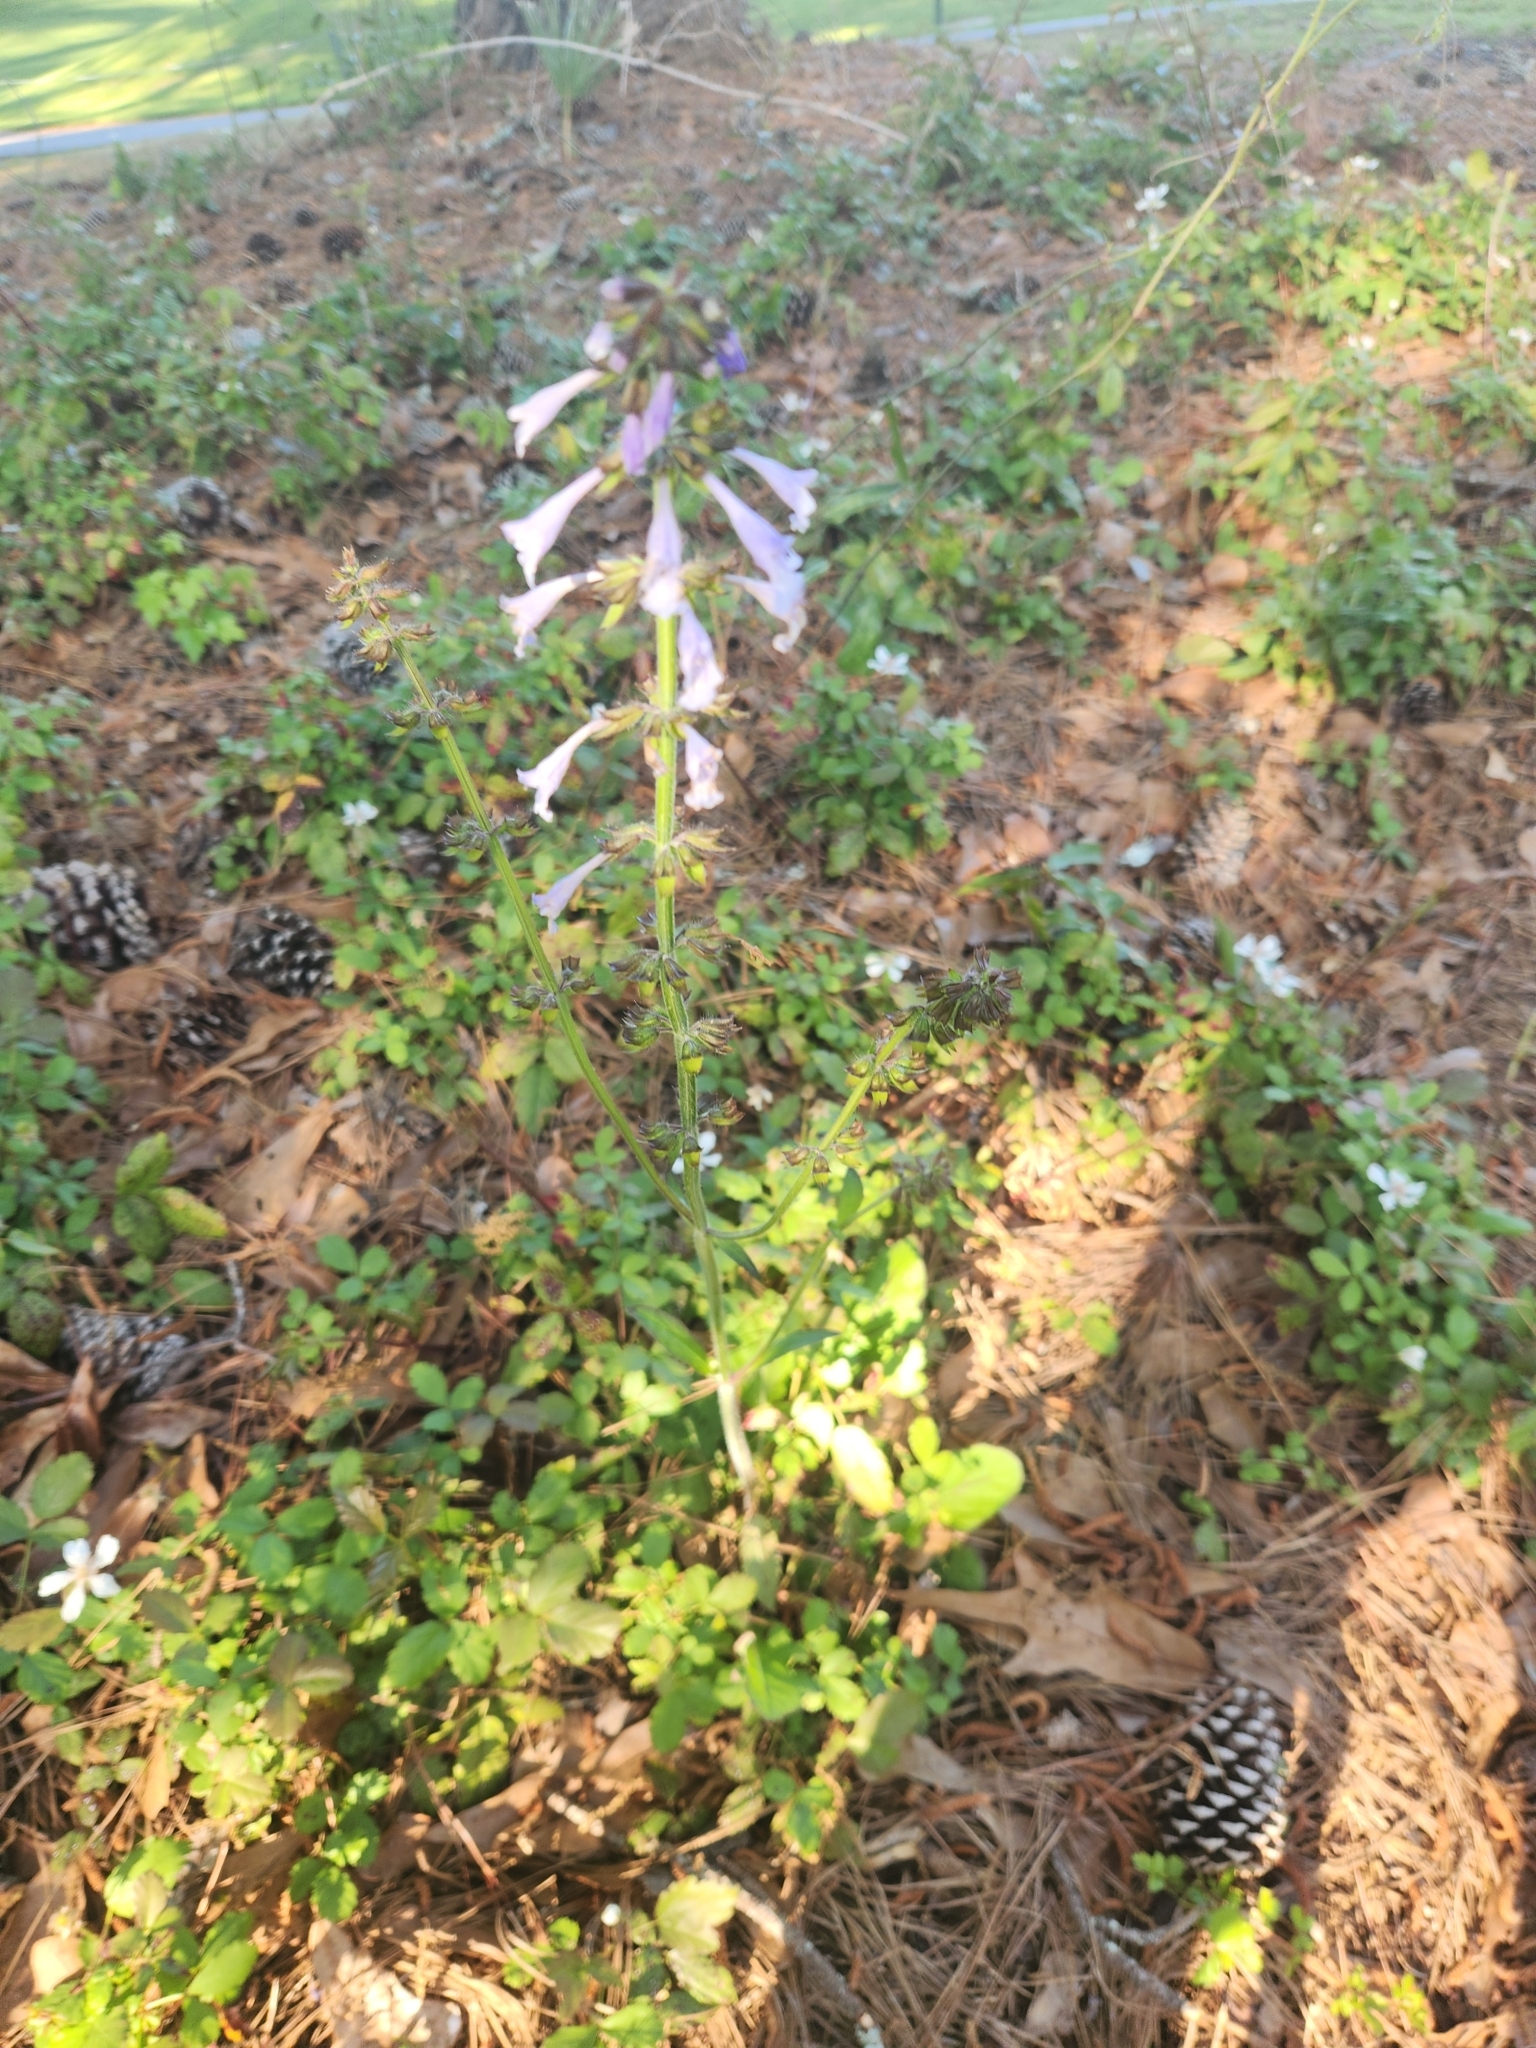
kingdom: Plantae
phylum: Tracheophyta
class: Magnoliopsida
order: Lamiales
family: Lamiaceae
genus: Salvia
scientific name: Salvia lyrata
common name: Cancerweed
